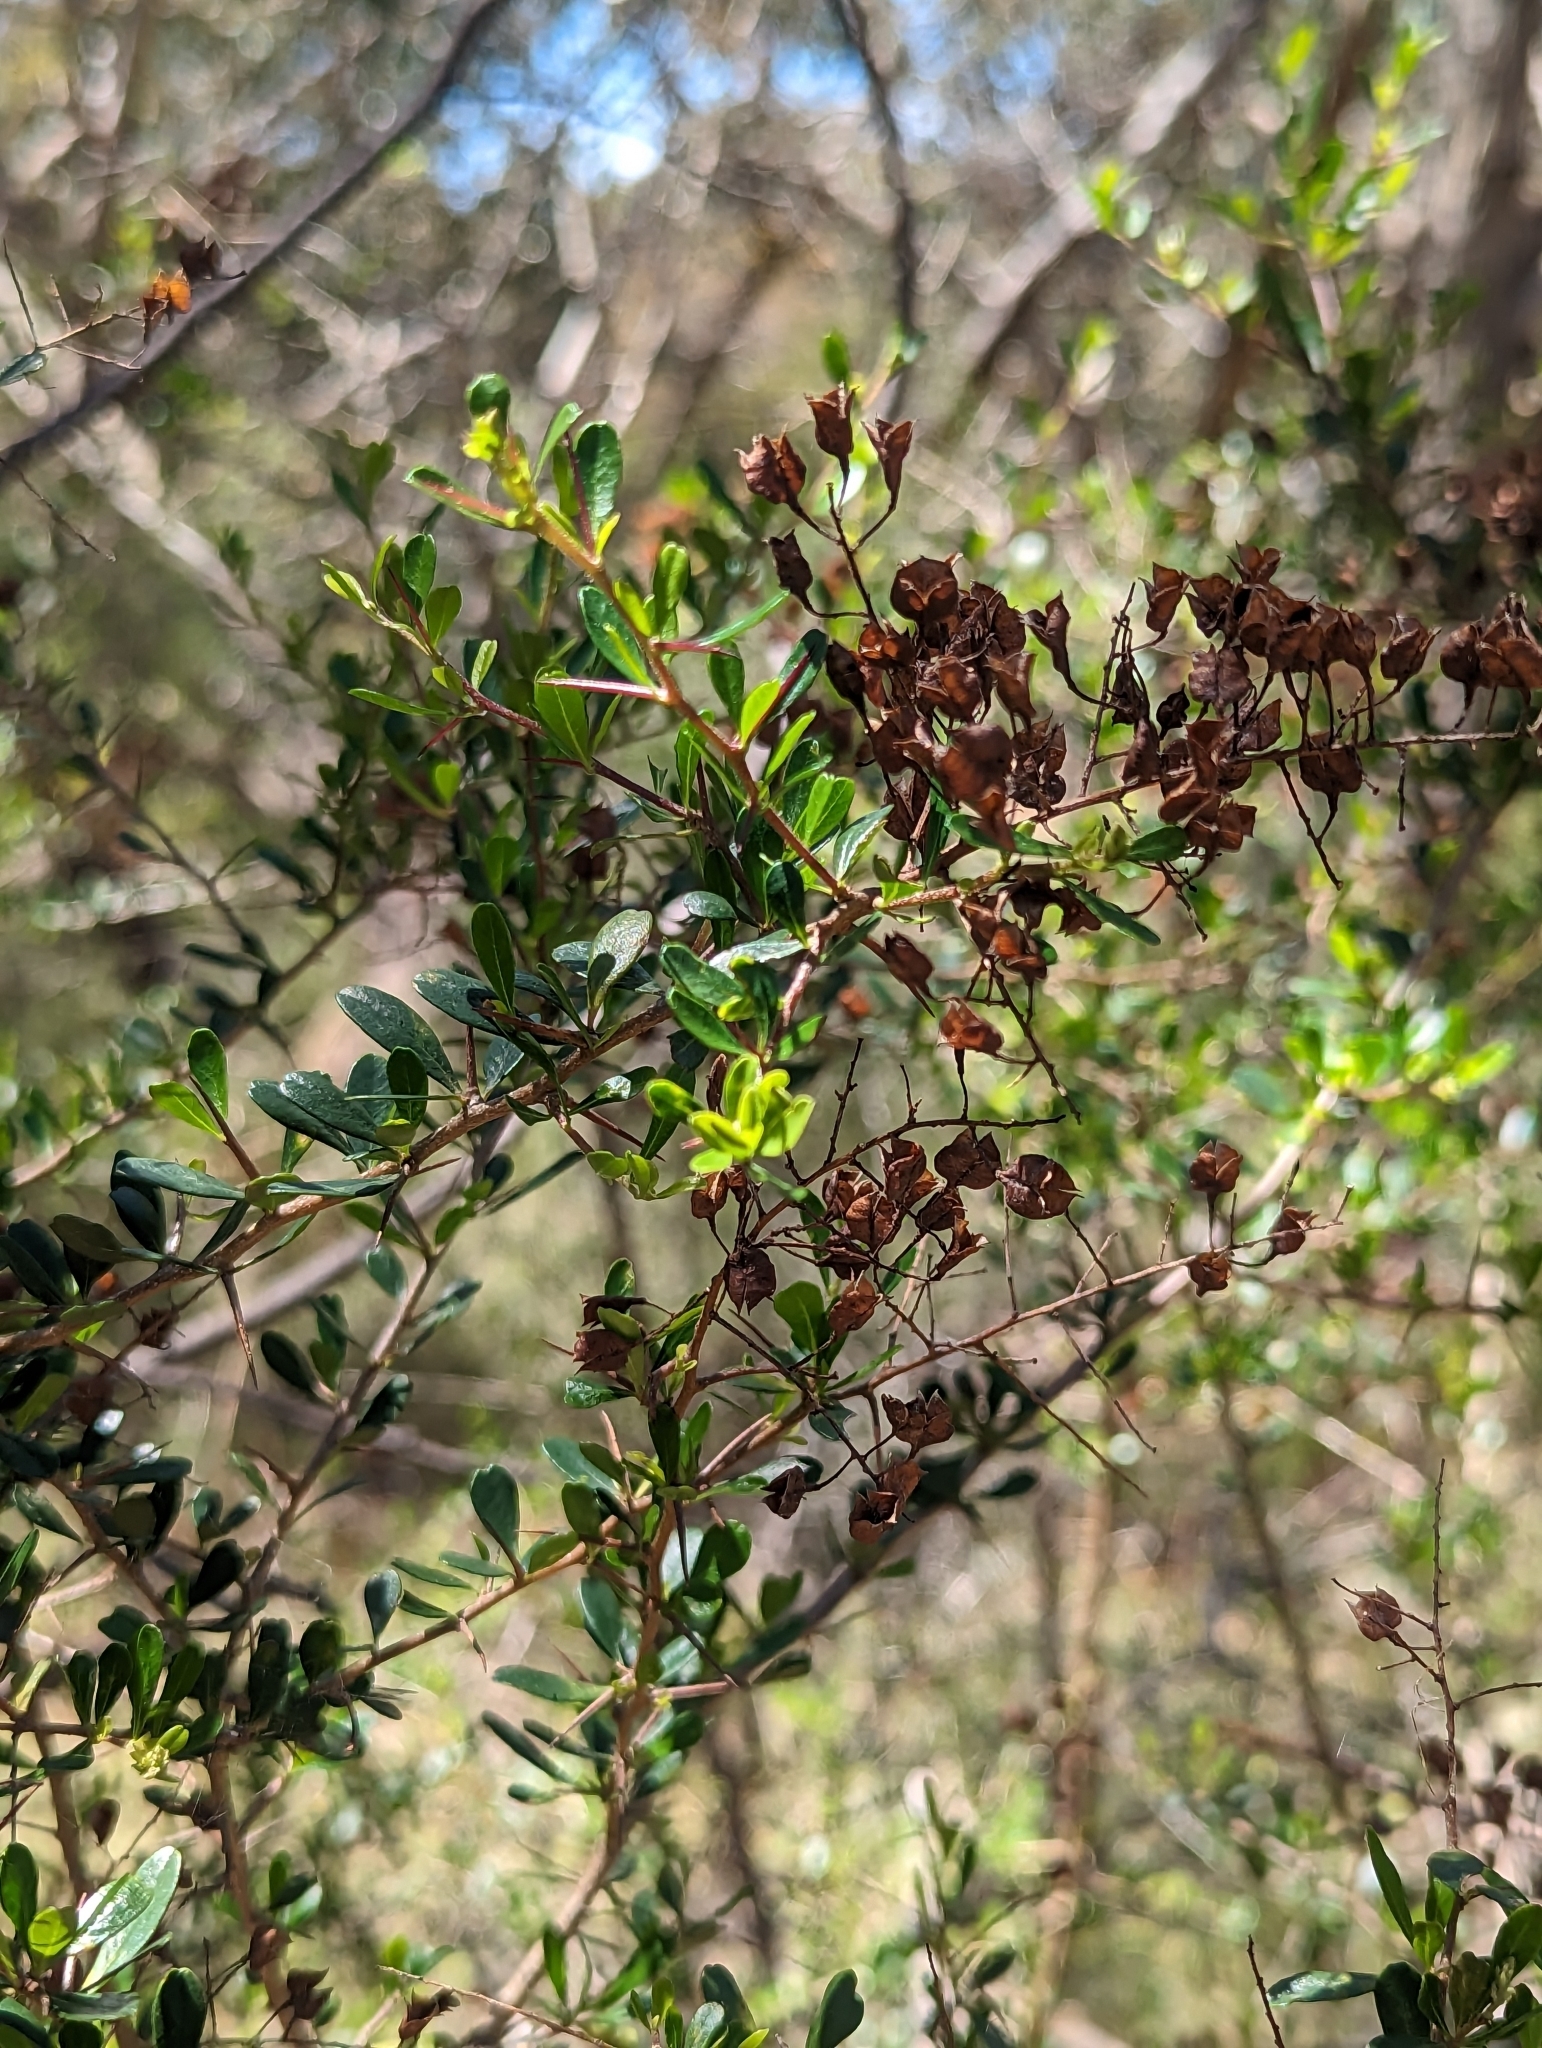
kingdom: Plantae
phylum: Tracheophyta
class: Magnoliopsida
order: Apiales
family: Pittosporaceae
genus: Bursaria
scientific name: Bursaria spinosa
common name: Australian blackthorn
